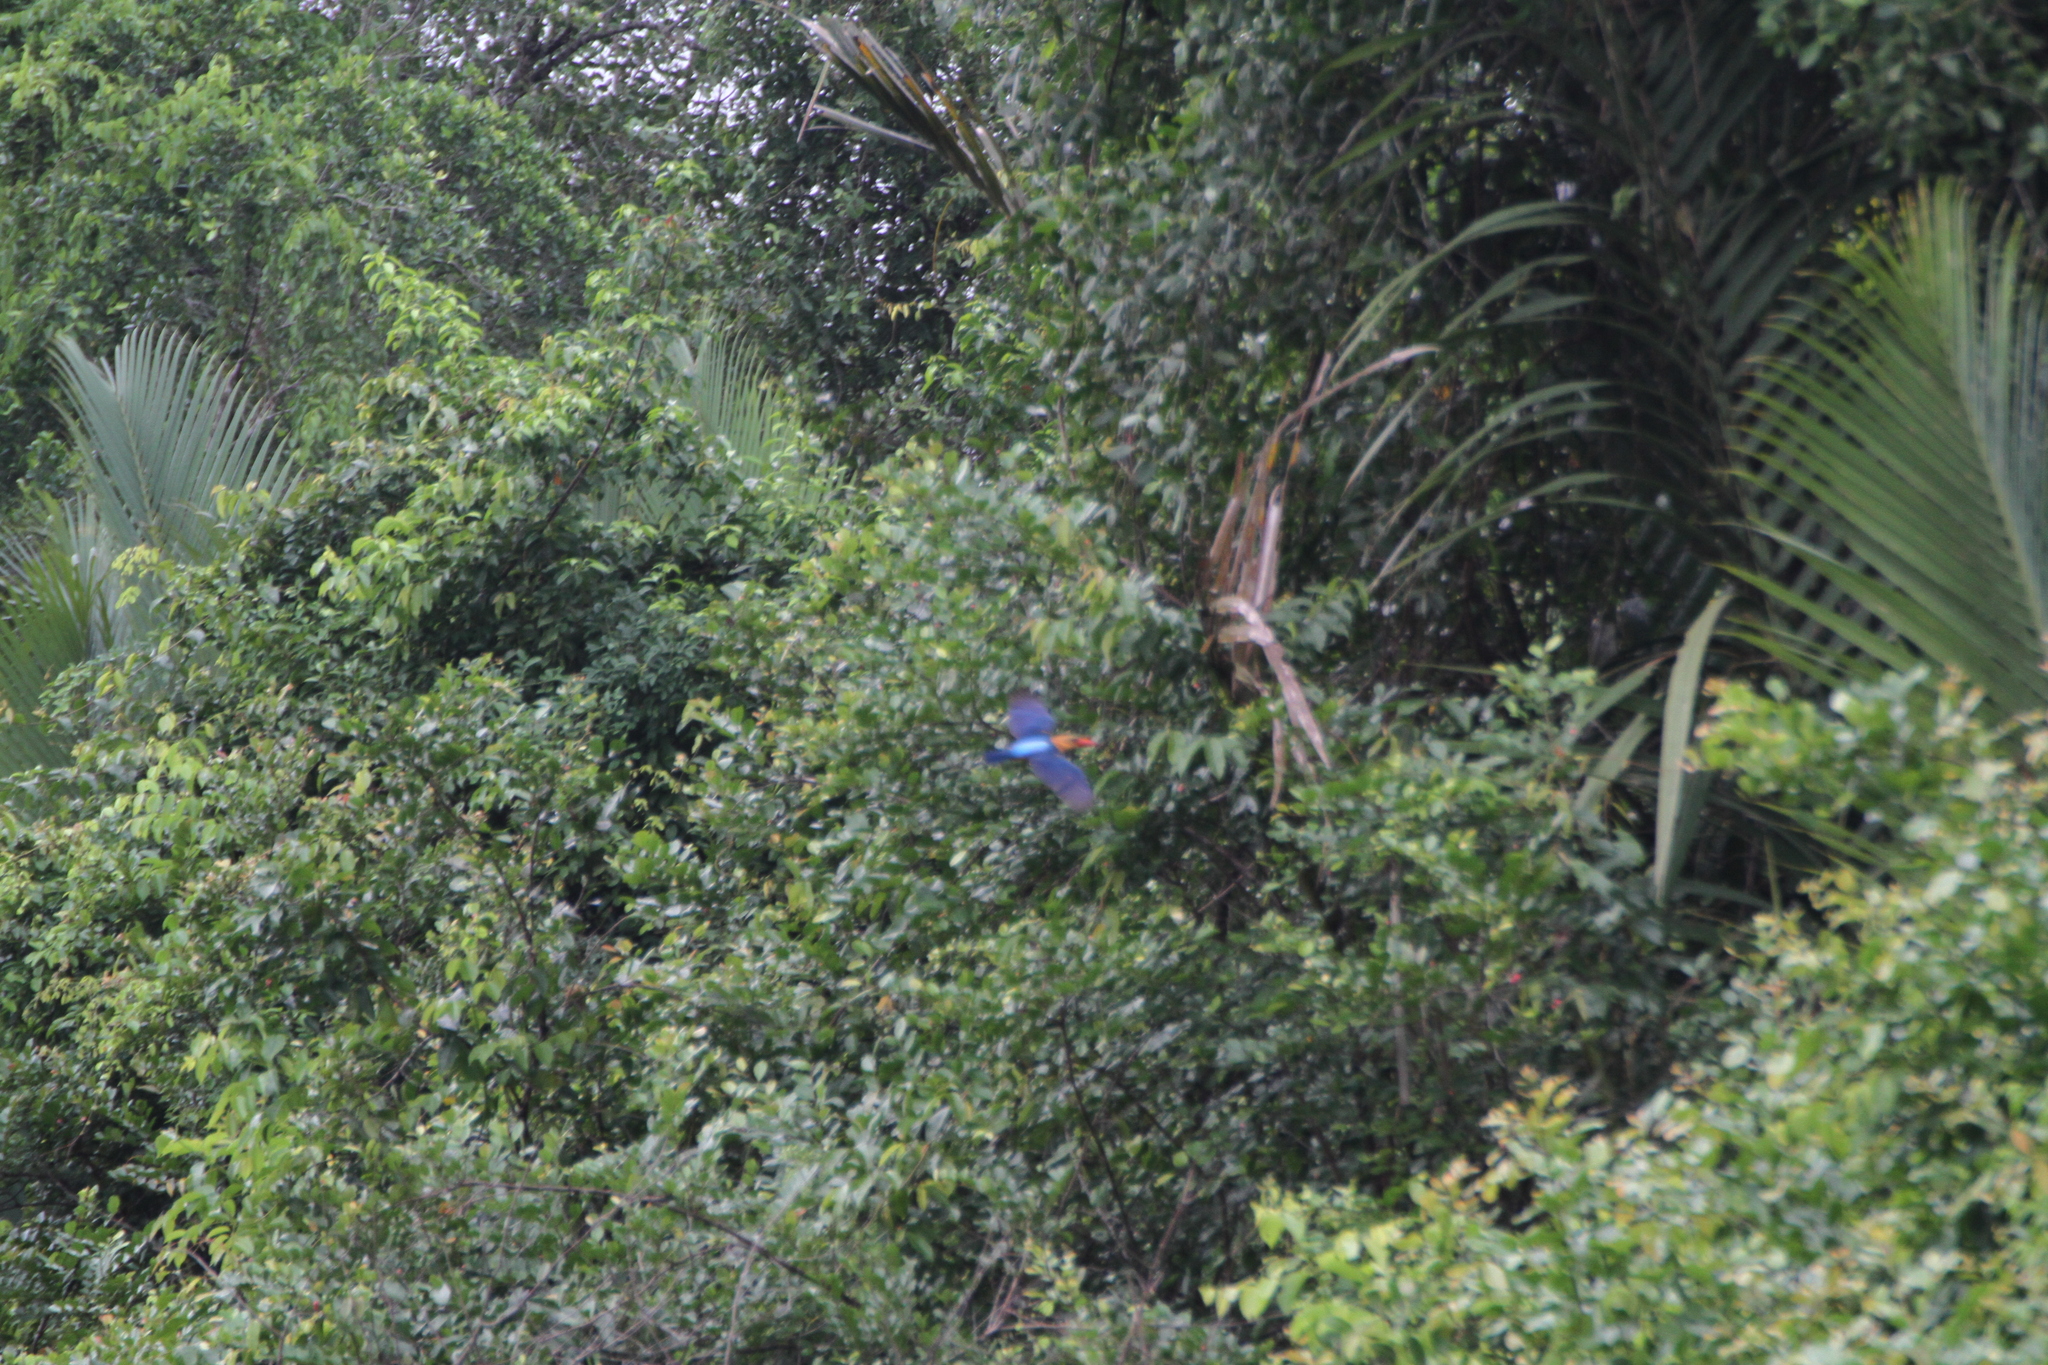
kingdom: Animalia
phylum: Chordata
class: Aves
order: Coraciiformes
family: Alcedinidae
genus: Pelargopsis
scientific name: Pelargopsis capensis
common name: Stork-billed kingfisher
